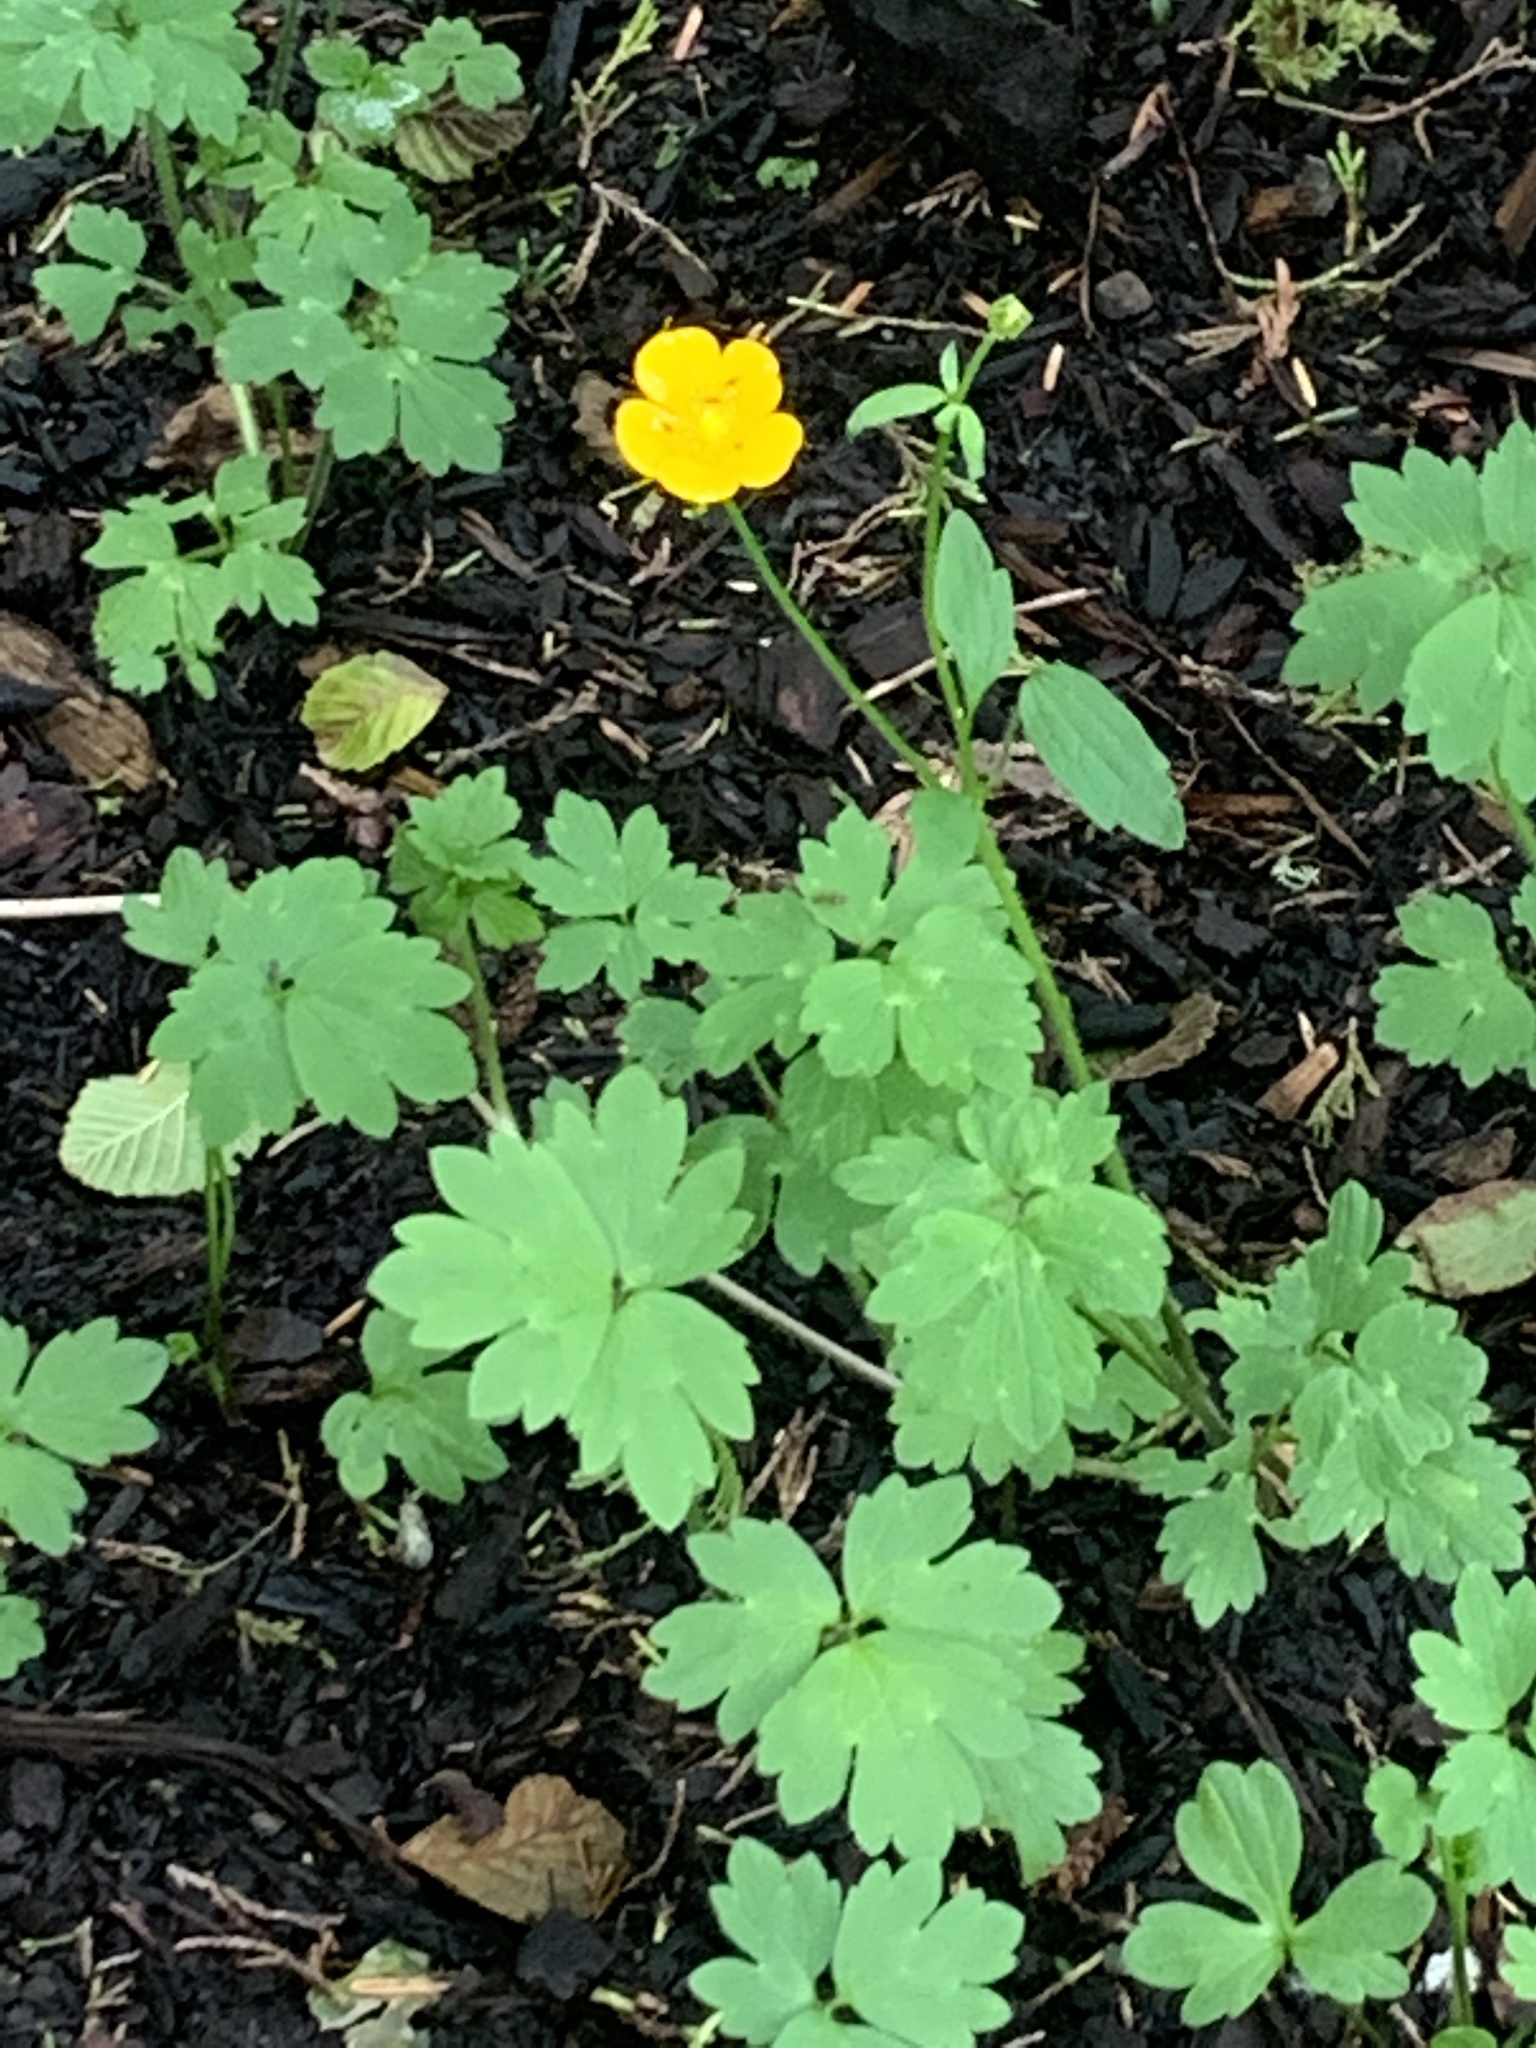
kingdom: Plantae
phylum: Tracheophyta
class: Magnoliopsida
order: Ranunculales
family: Ranunculaceae
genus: Ranunculus
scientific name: Ranunculus repens
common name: Creeping buttercup
